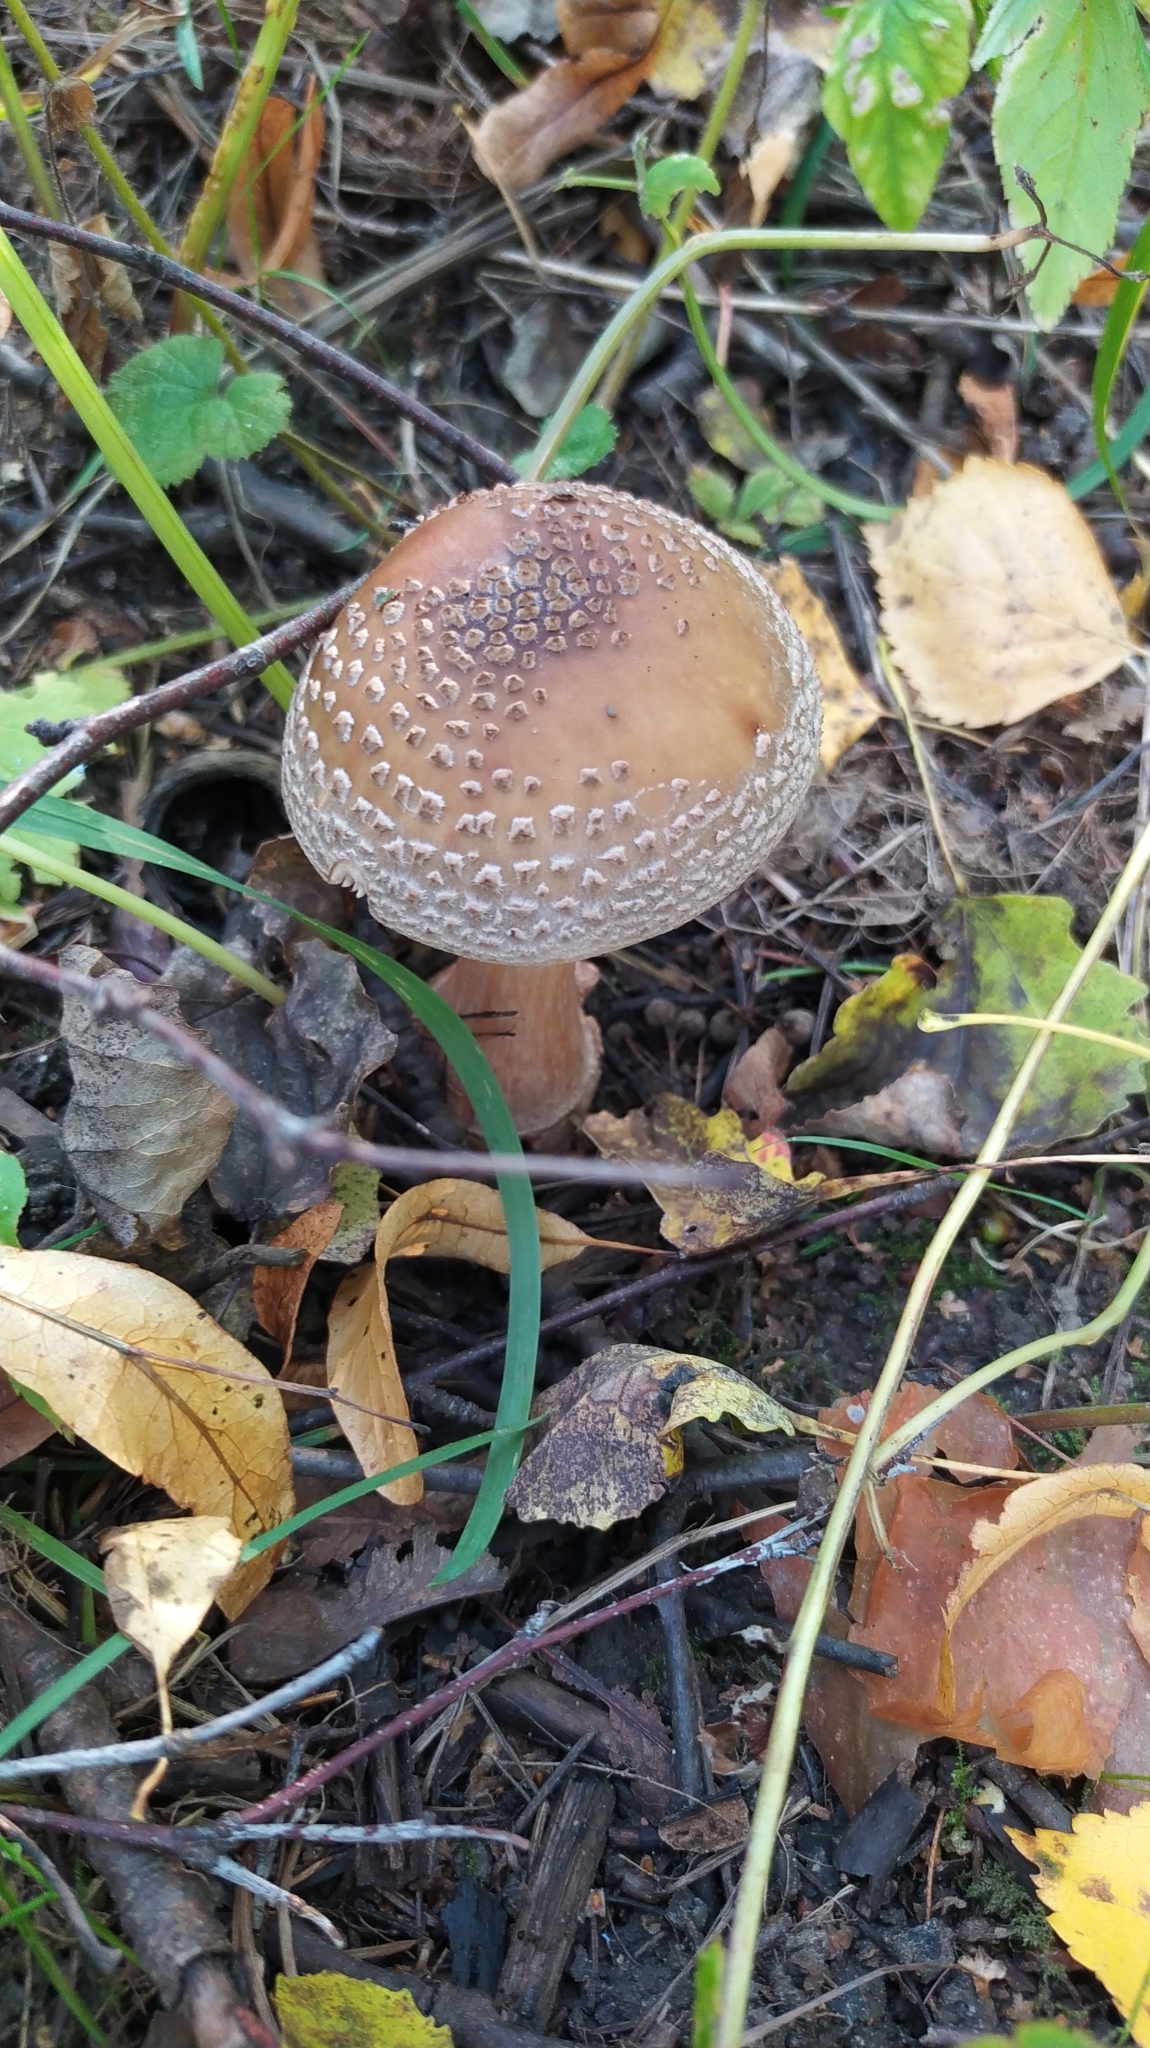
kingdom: Fungi
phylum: Basidiomycota
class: Agaricomycetes
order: Agaricales
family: Amanitaceae
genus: Amanita
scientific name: Amanita rubescens
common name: Blusher
